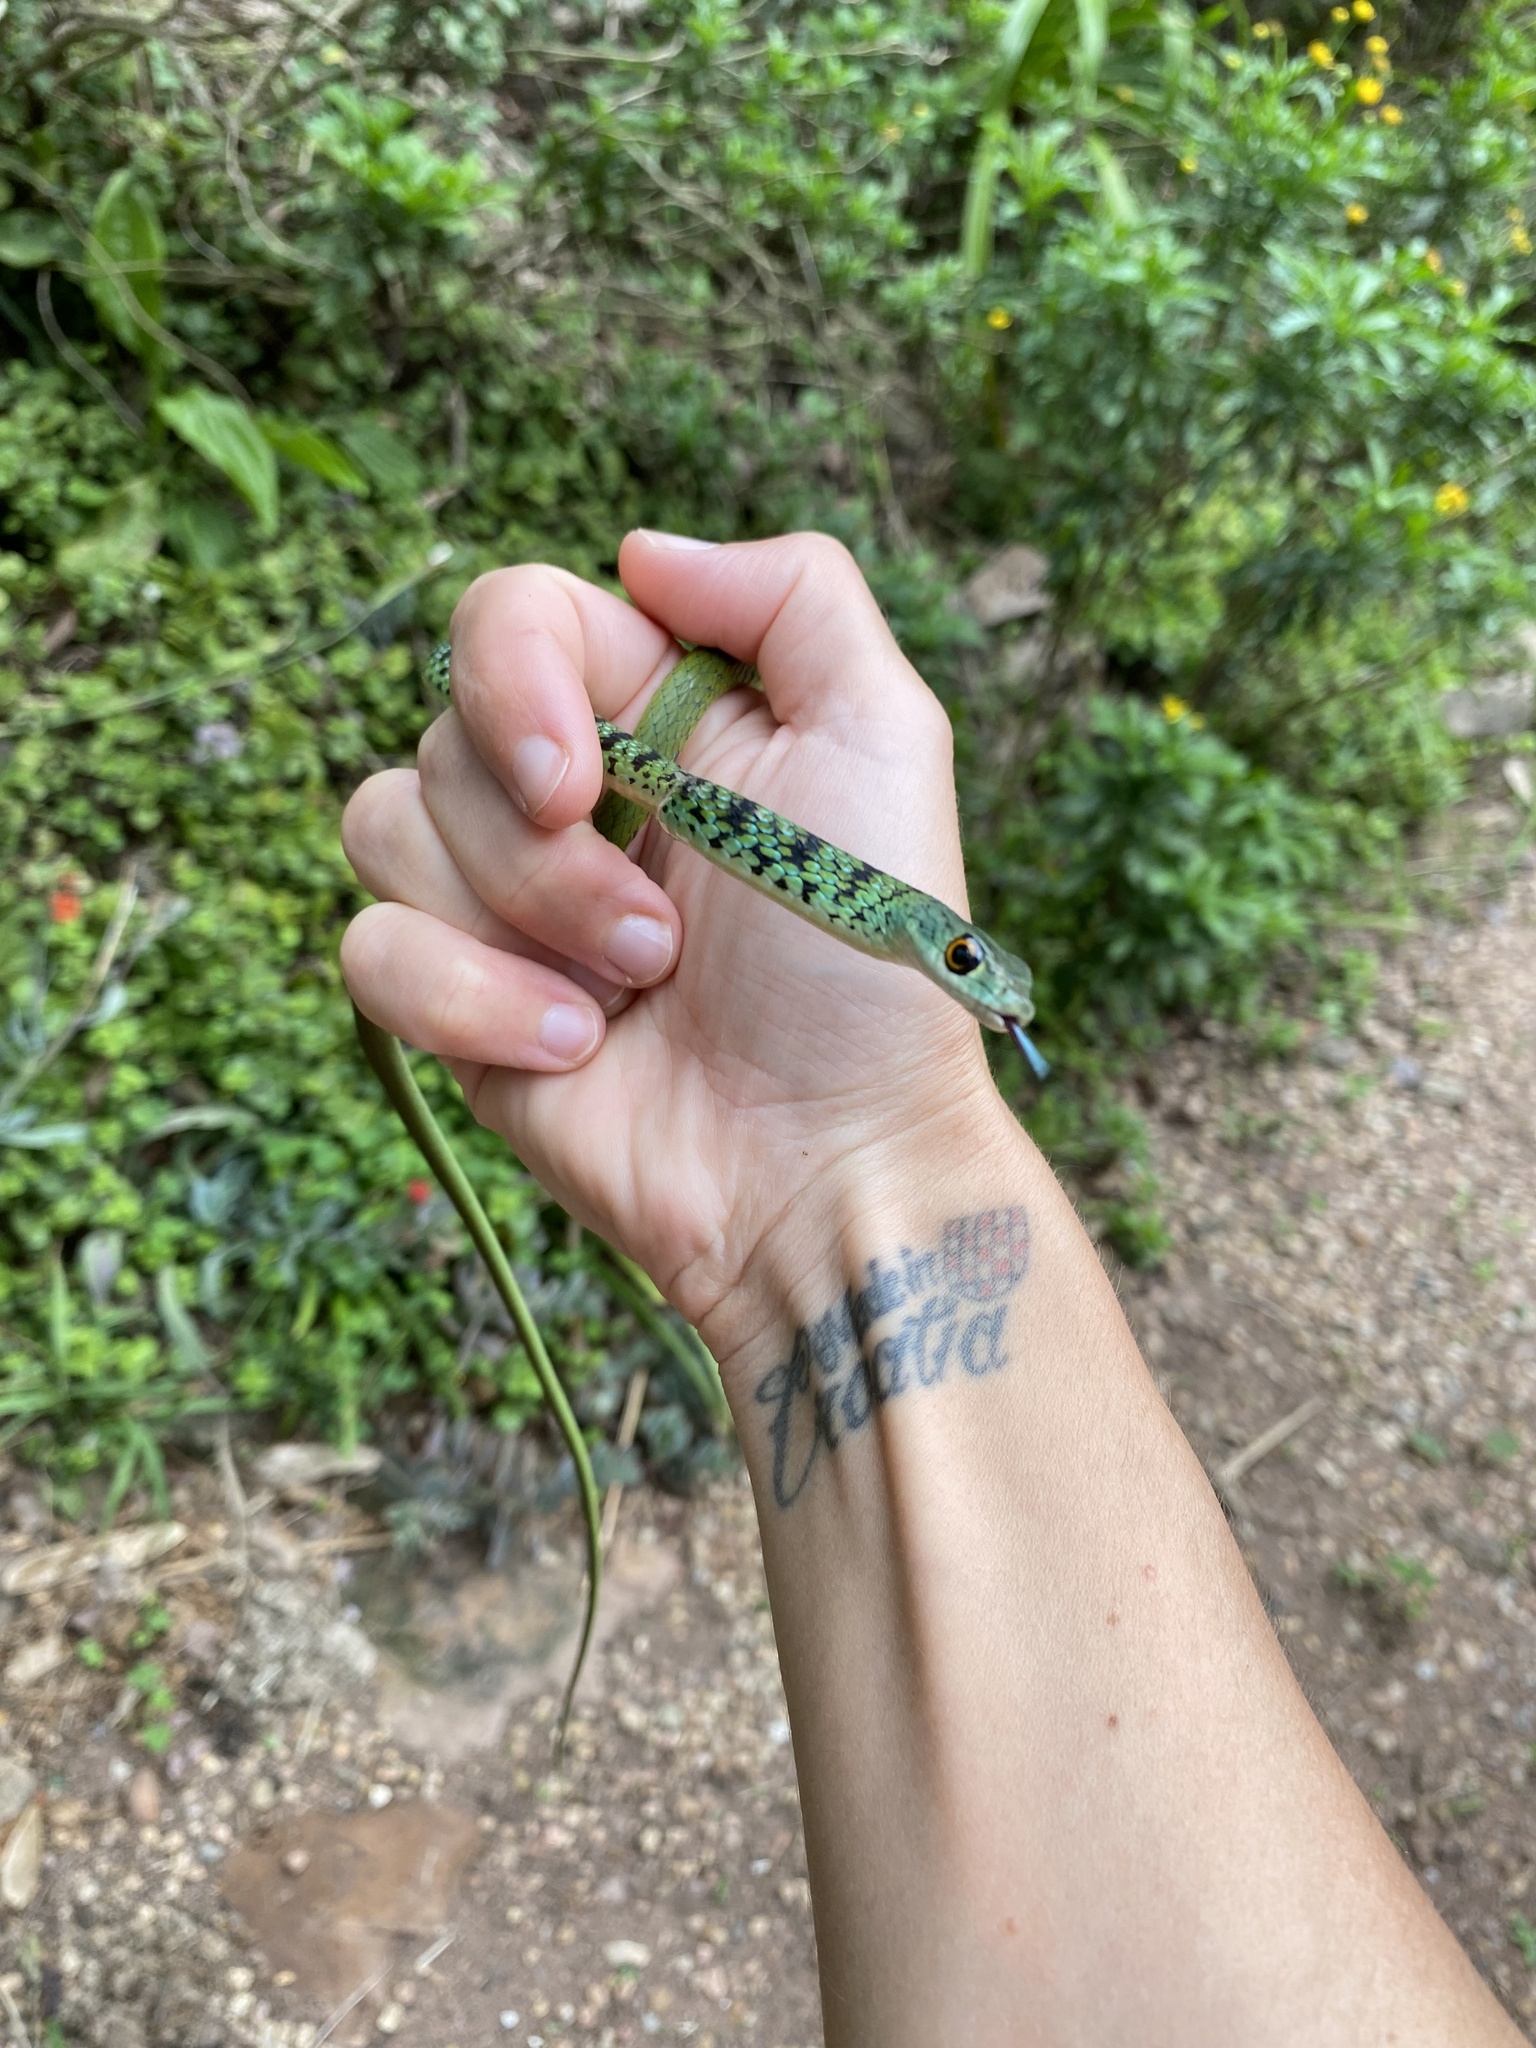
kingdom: Animalia
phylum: Chordata
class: Squamata
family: Colubridae
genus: Philothamnus
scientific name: Philothamnus semivariegatus
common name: Spotted bush snake
